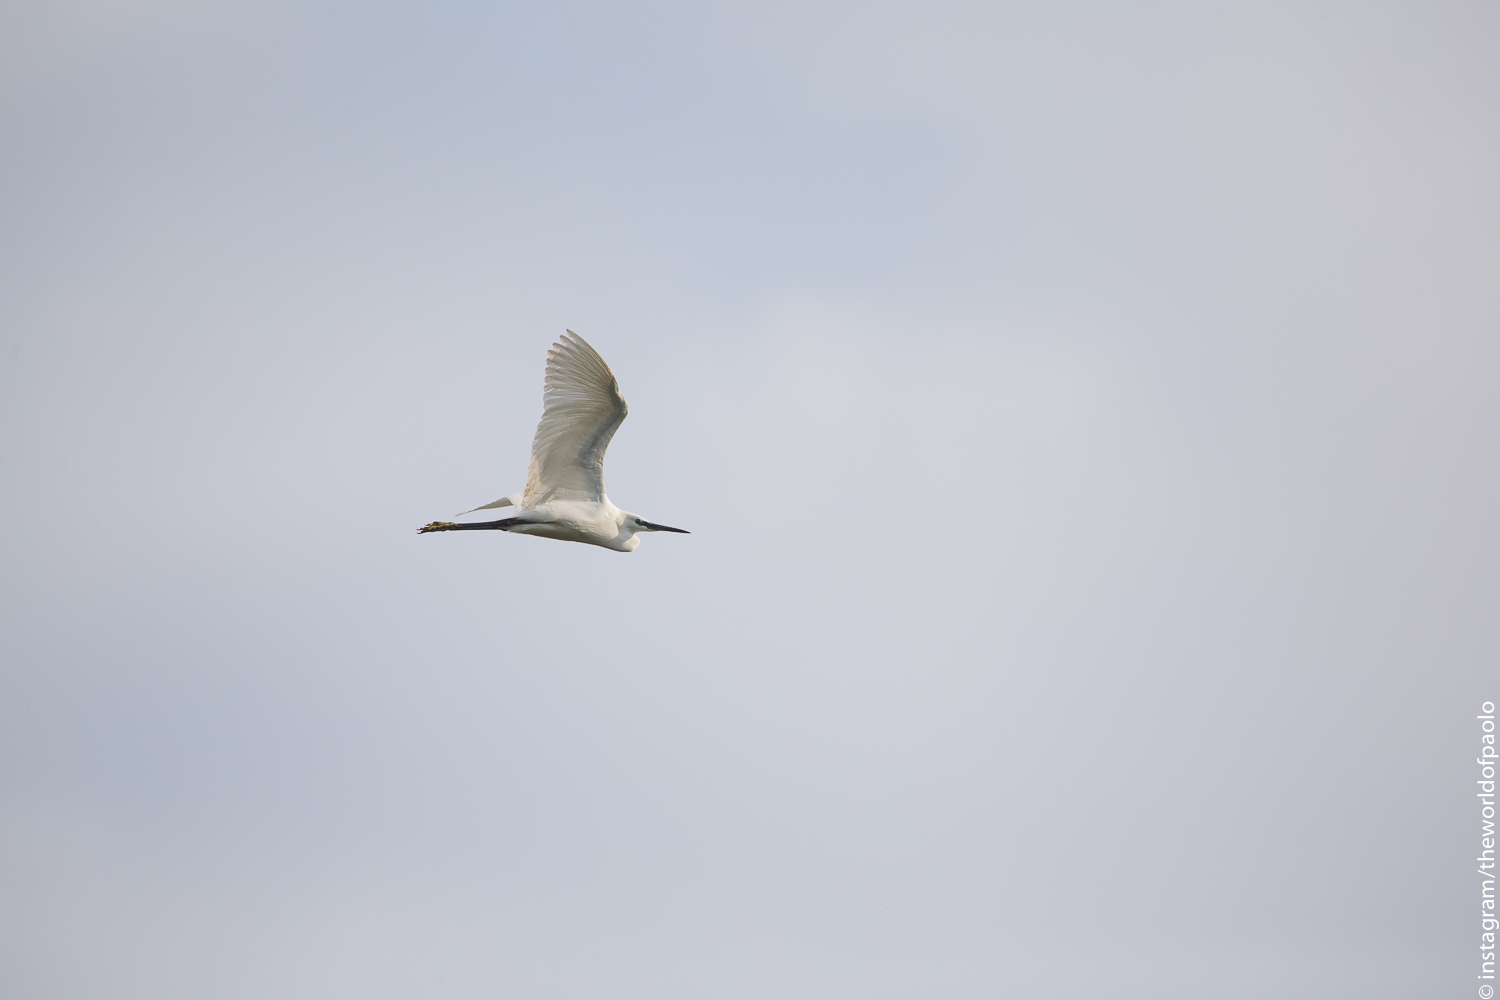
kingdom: Animalia
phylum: Chordata
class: Aves
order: Pelecaniformes
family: Ardeidae
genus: Egretta
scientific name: Egretta garzetta
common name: Little egret
